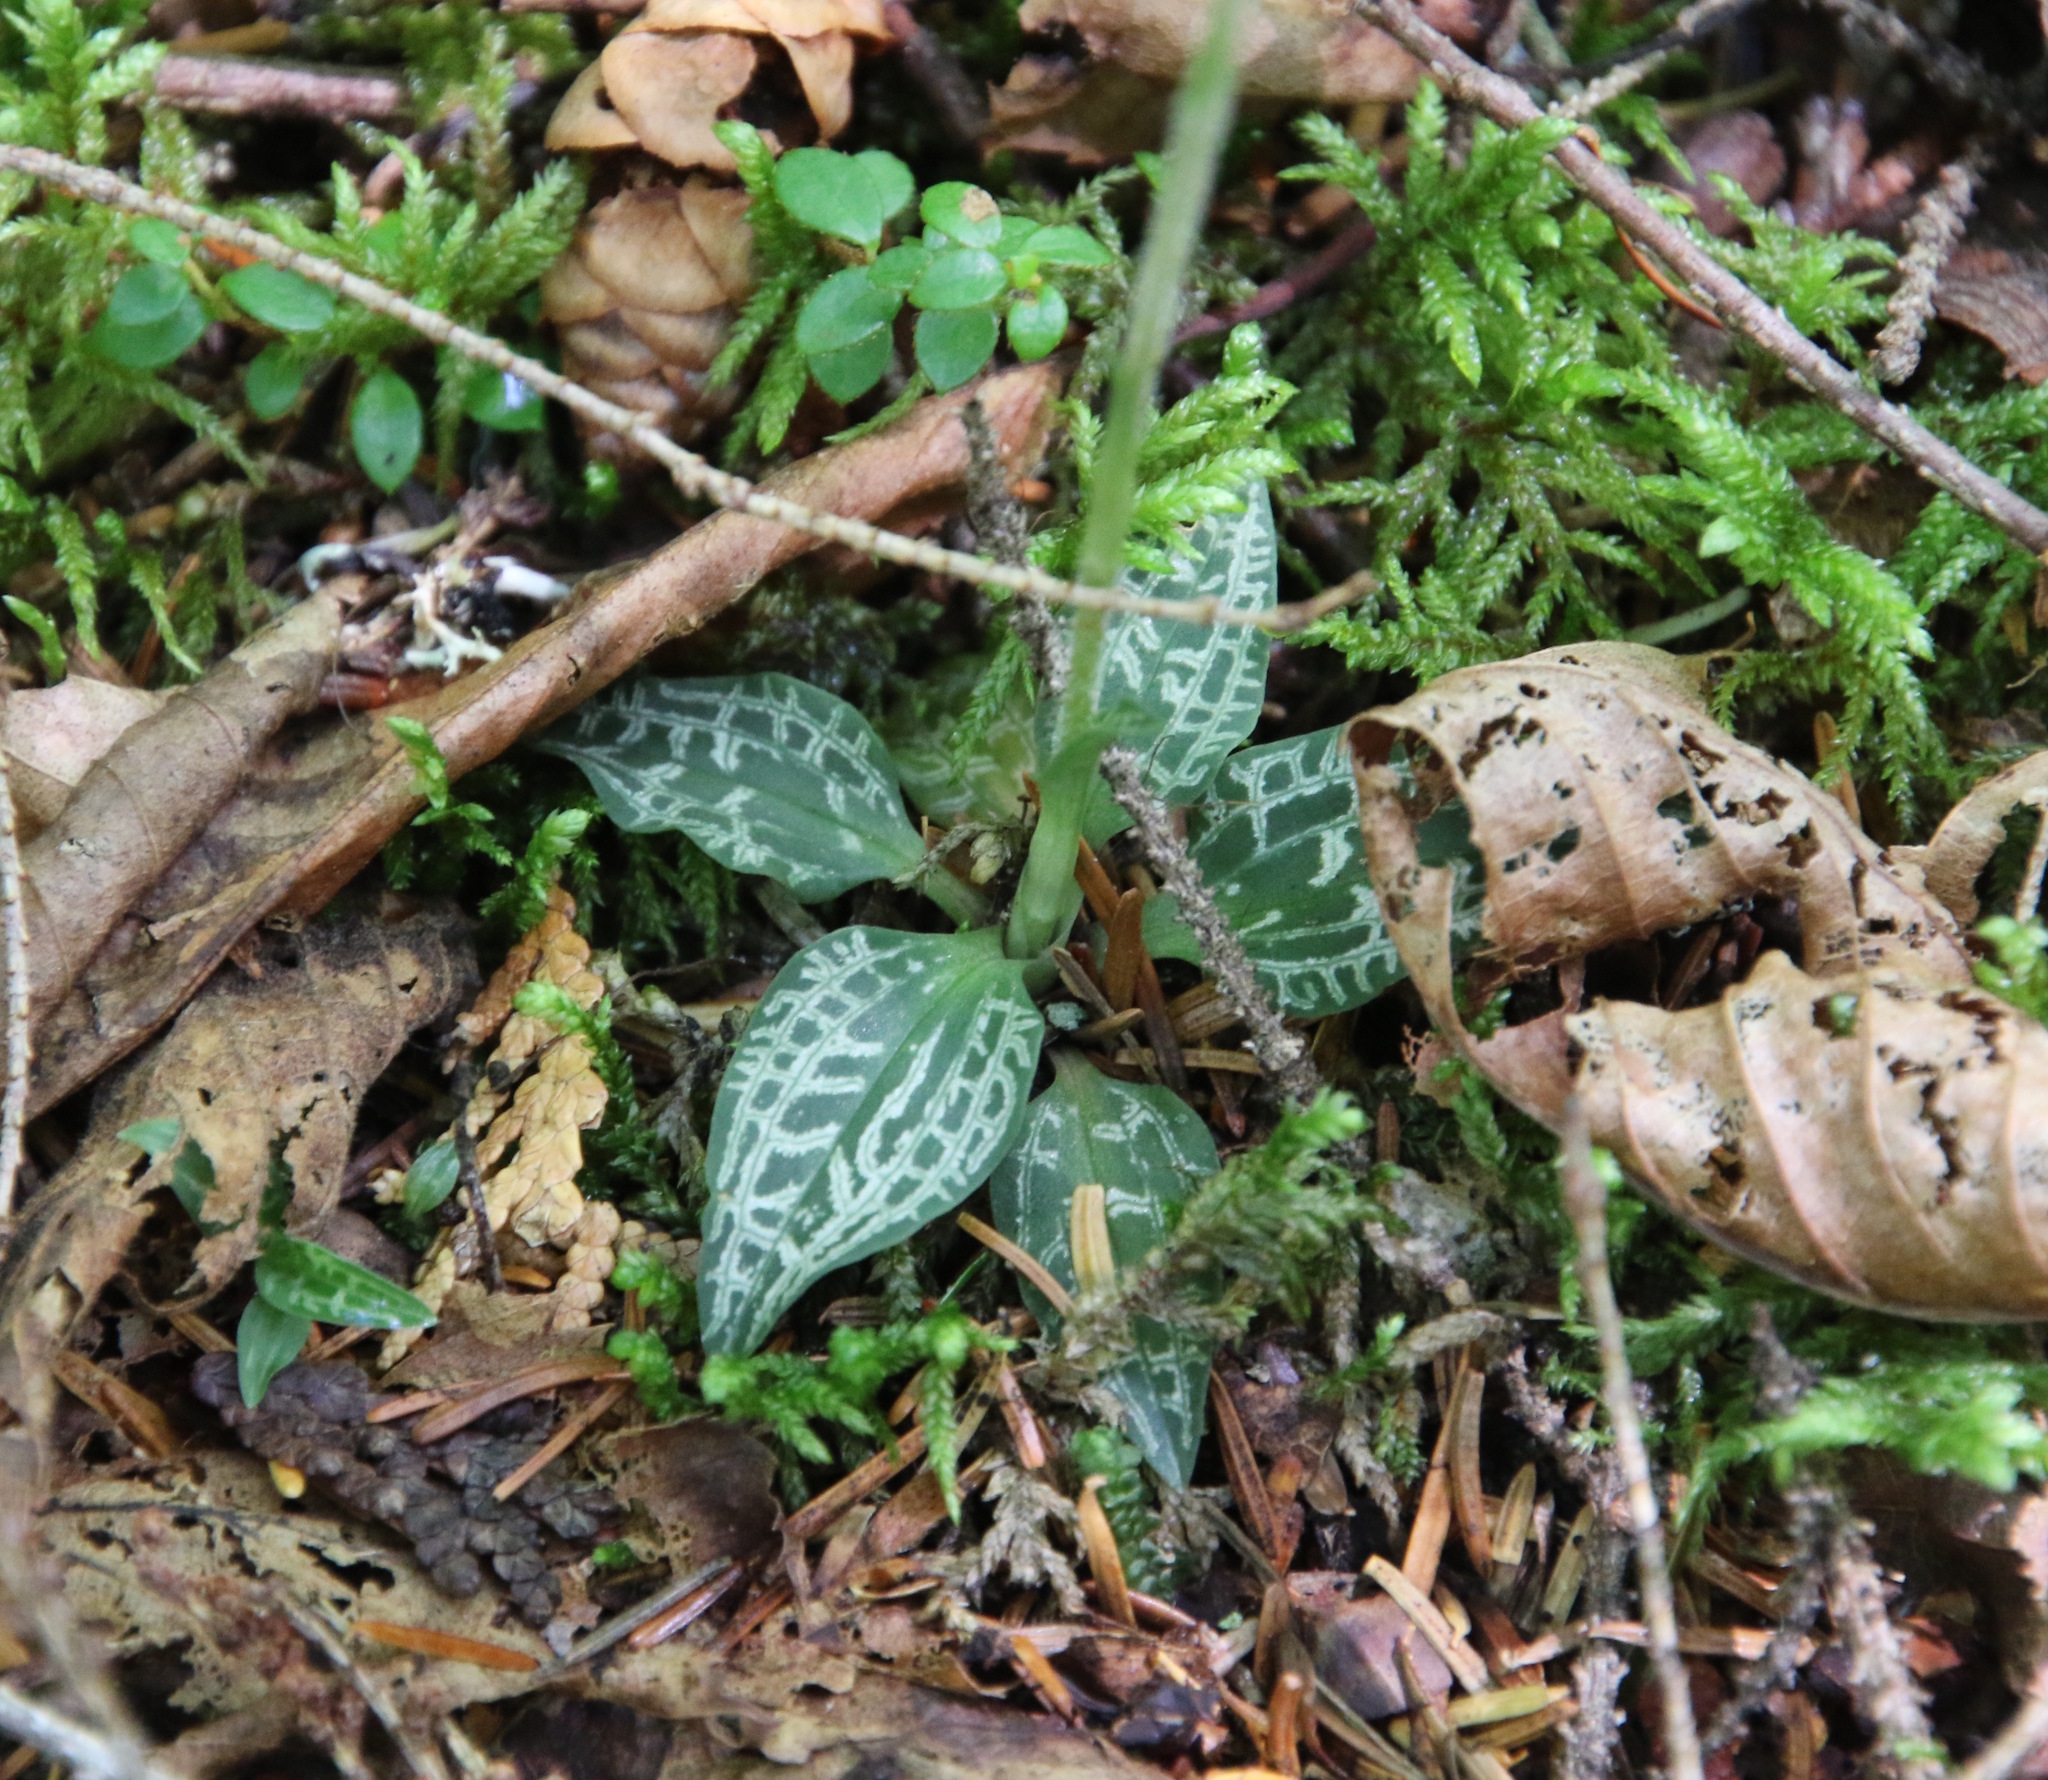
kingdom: Plantae
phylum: Tracheophyta
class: Liliopsida
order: Asparagales
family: Orchidaceae
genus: Goodyera
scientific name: Goodyera repens
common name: Creeping lady's-tresses
